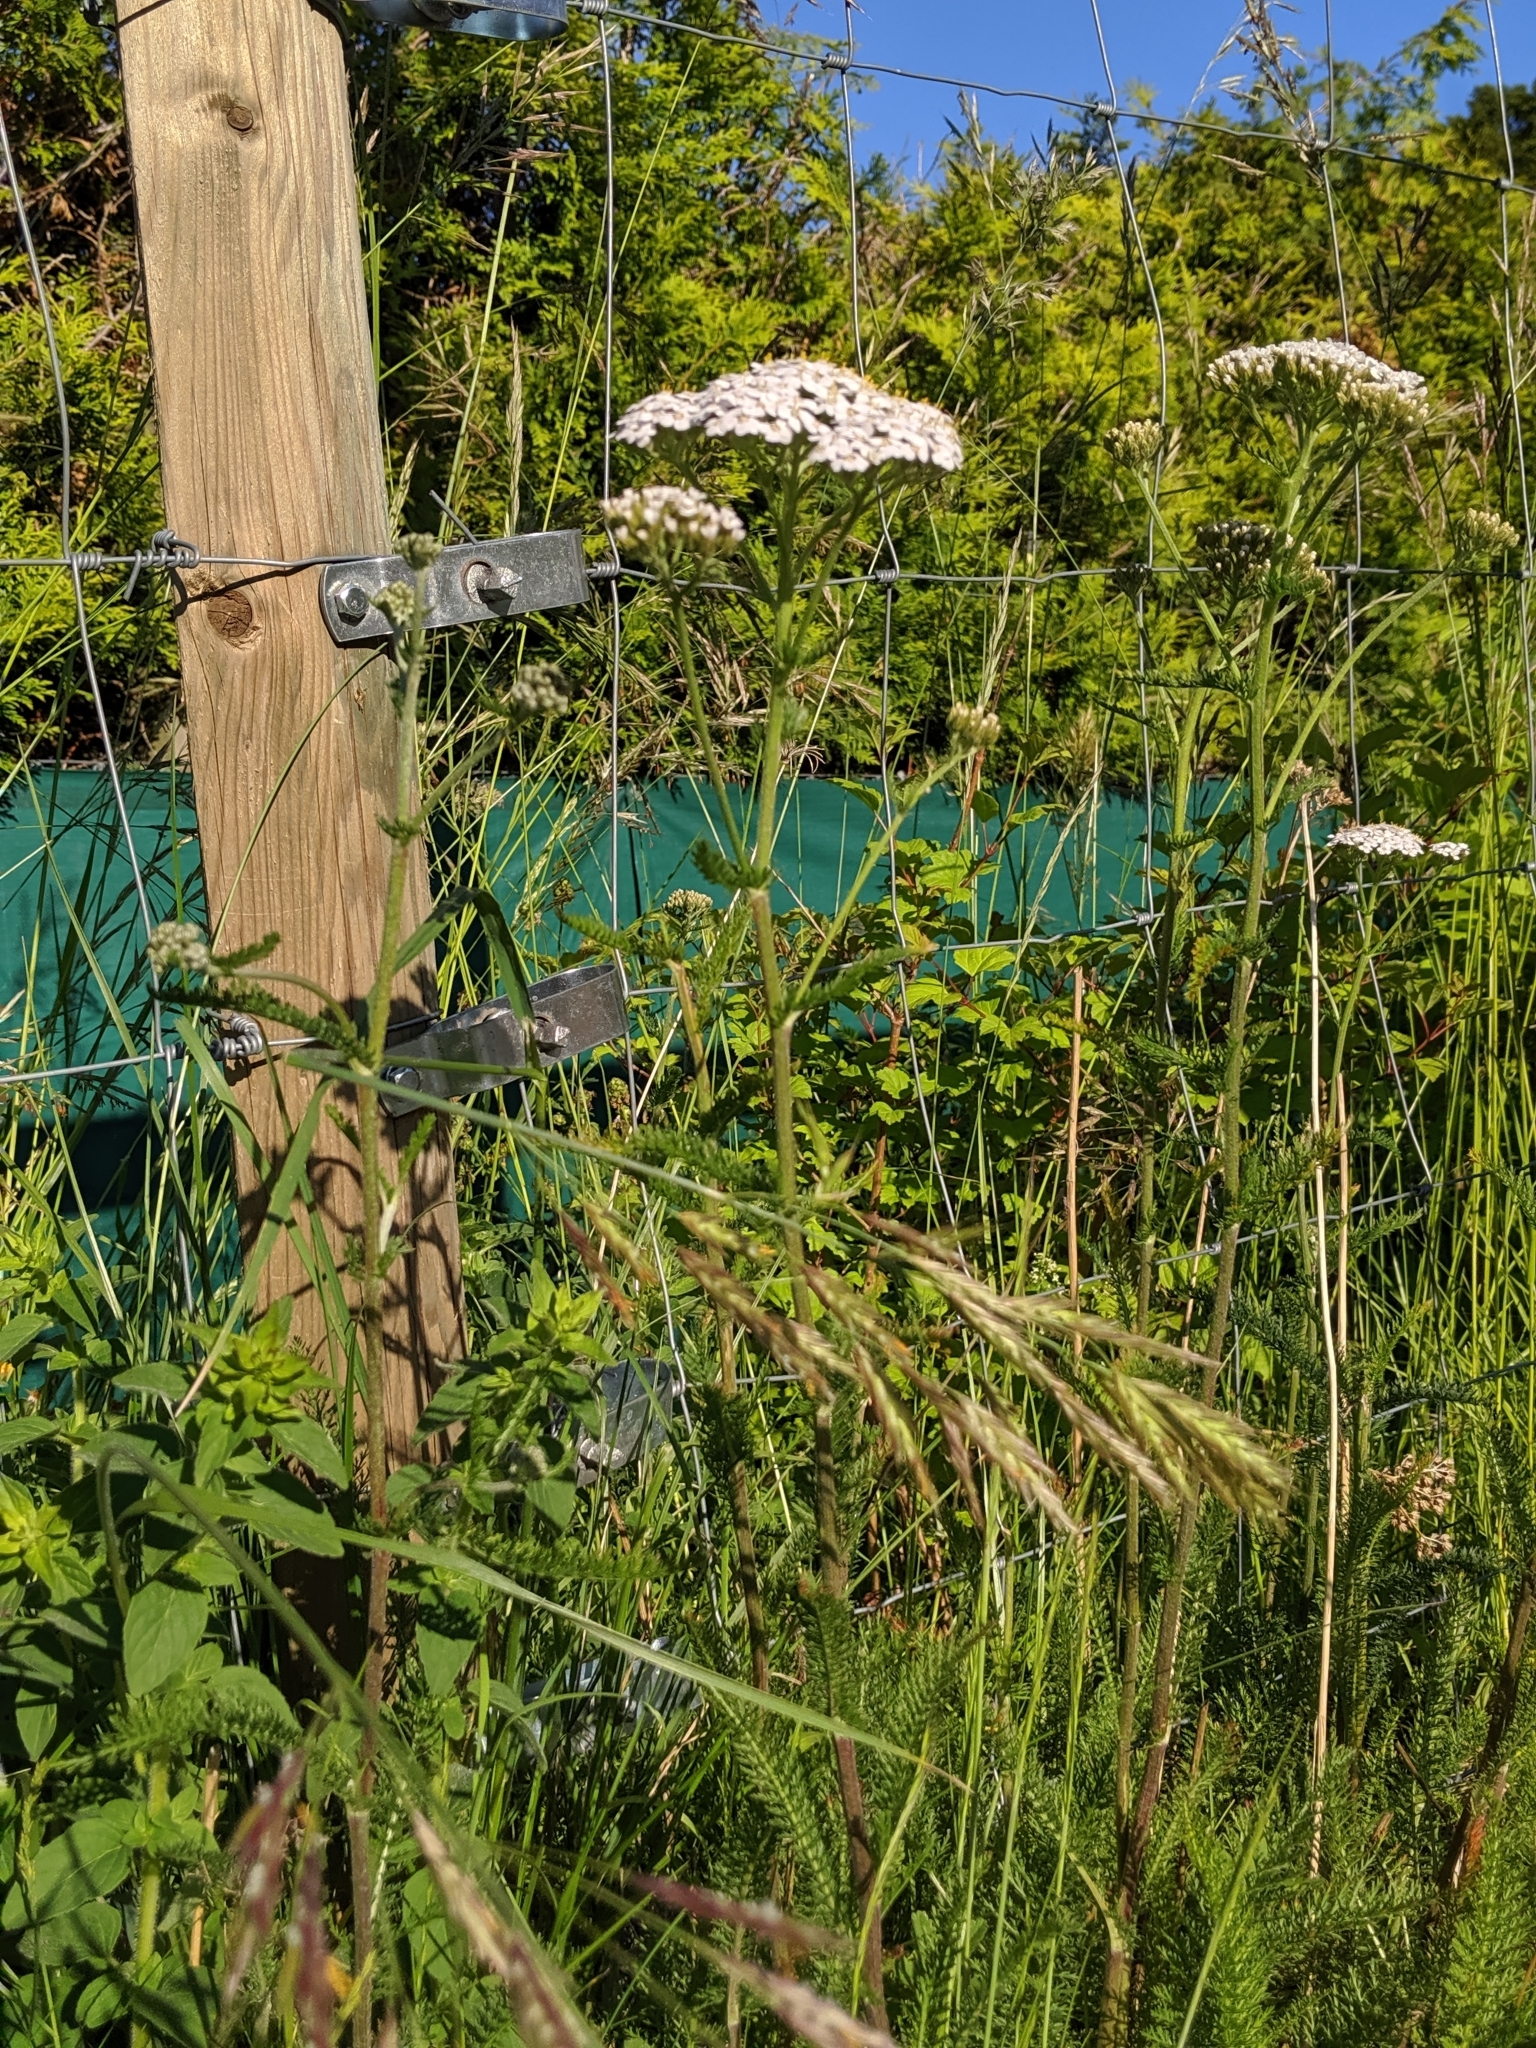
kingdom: Plantae
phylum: Tracheophyta
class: Magnoliopsida
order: Asterales
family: Asteraceae
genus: Achillea
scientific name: Achillea millefolium
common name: Yarrow
